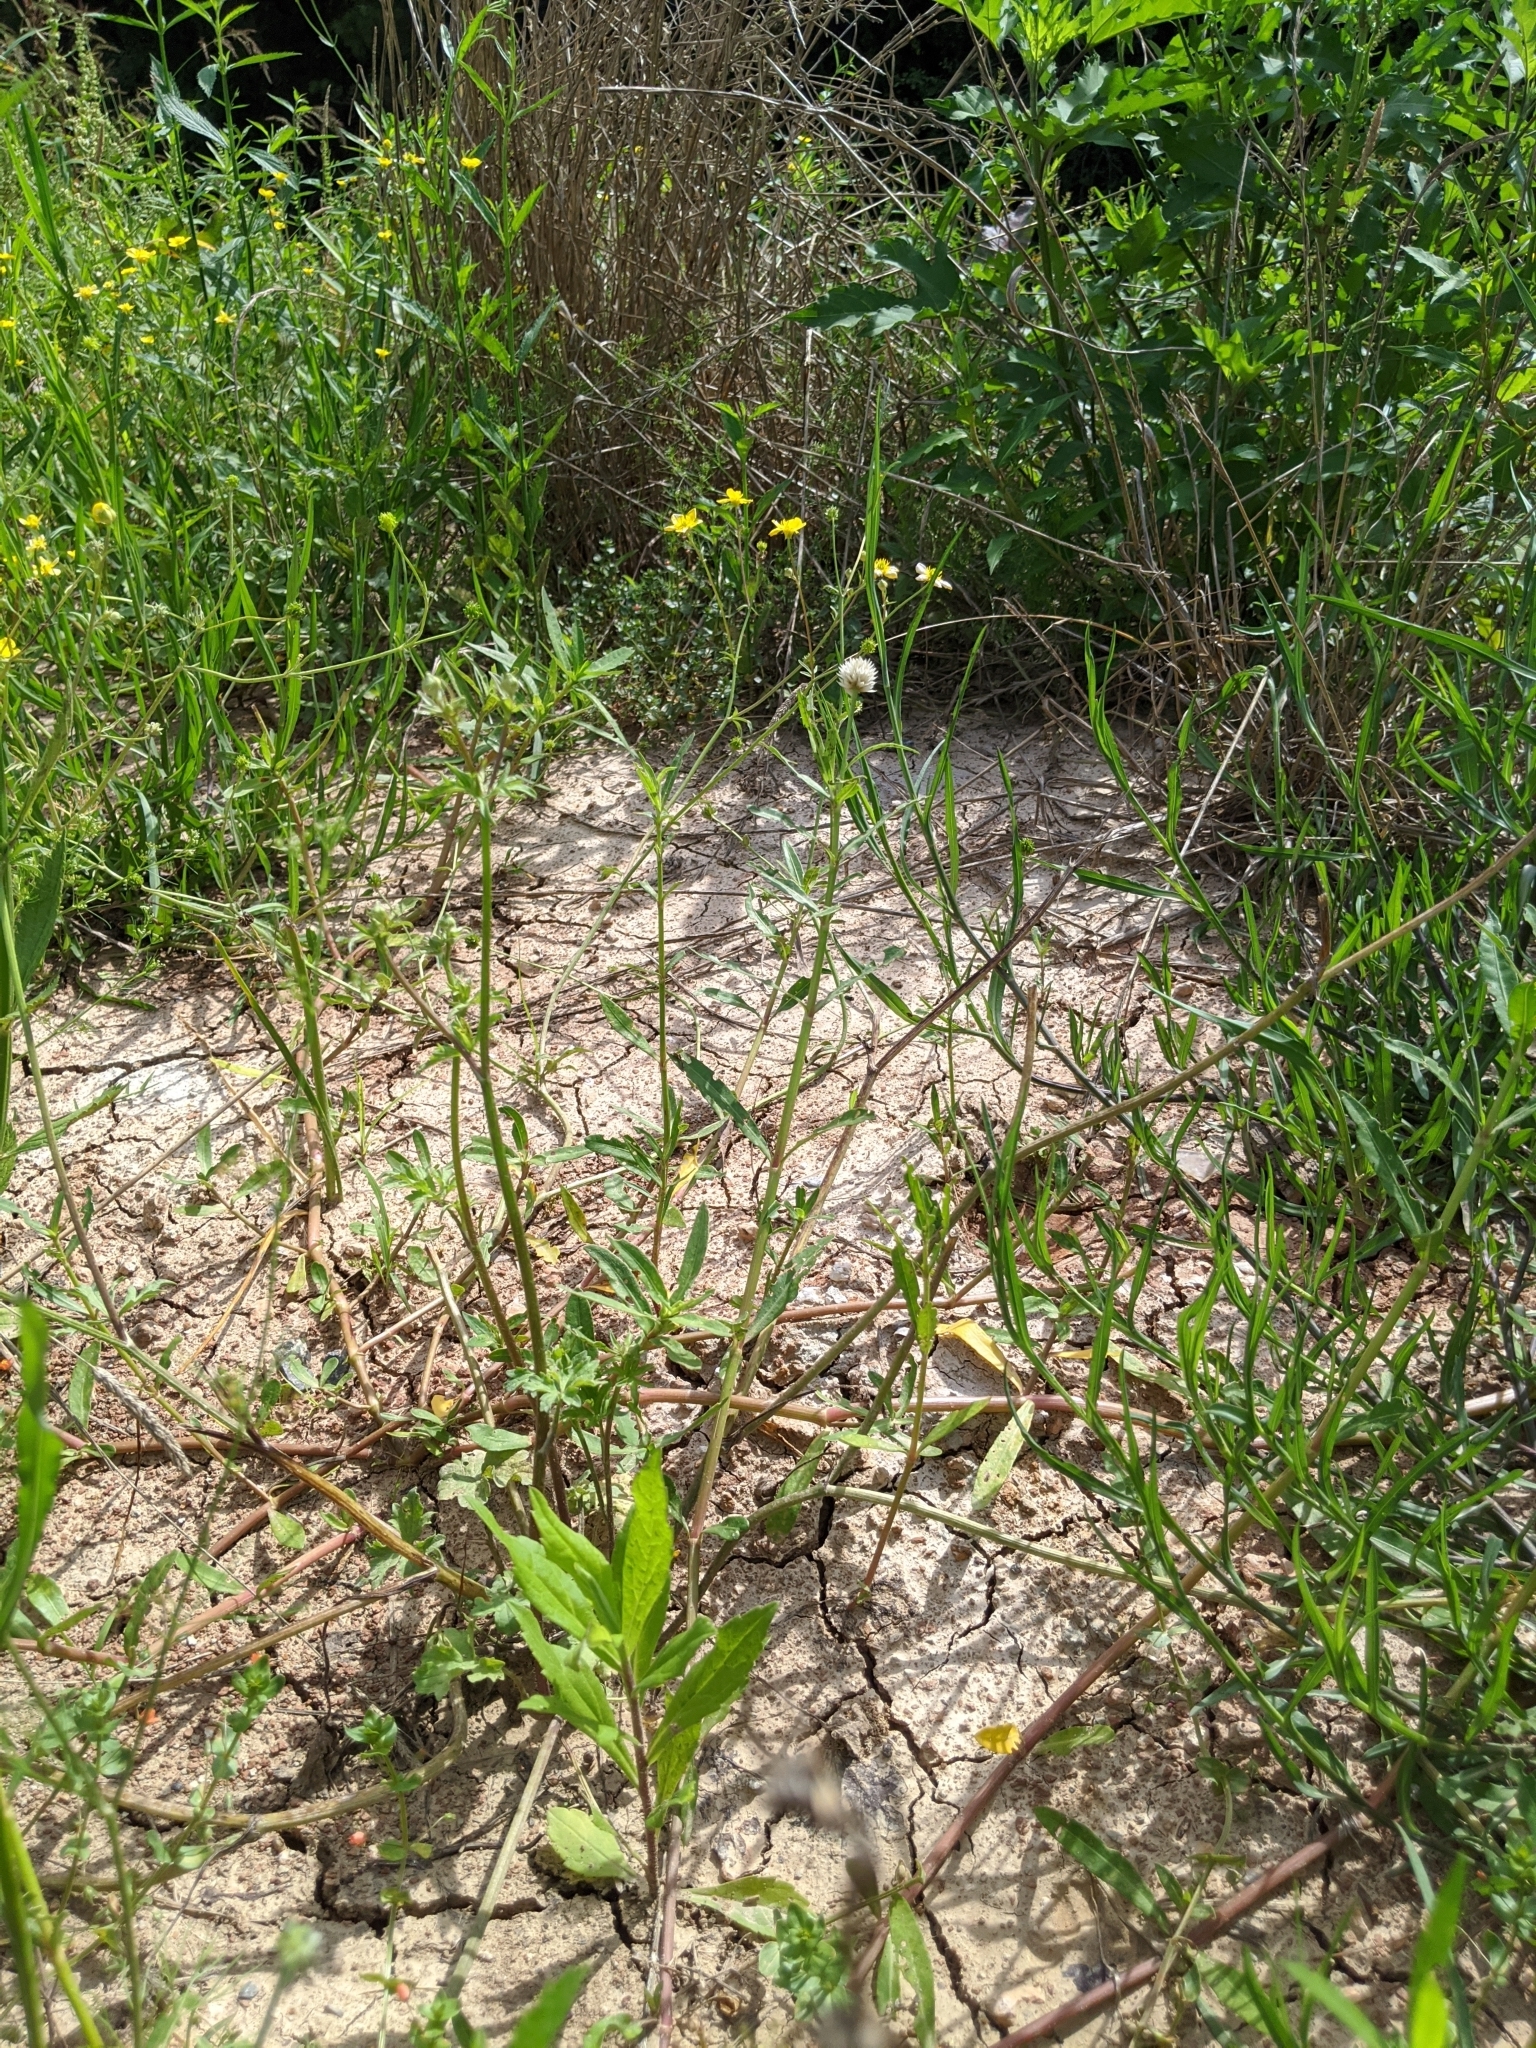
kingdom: Plantae
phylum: Tracheophyta
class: Magnoliopsida
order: Caryophyllales
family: Amaranthaceae
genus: Alternanthera
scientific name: Alternanthera philoxeroides
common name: Alligatorweed
